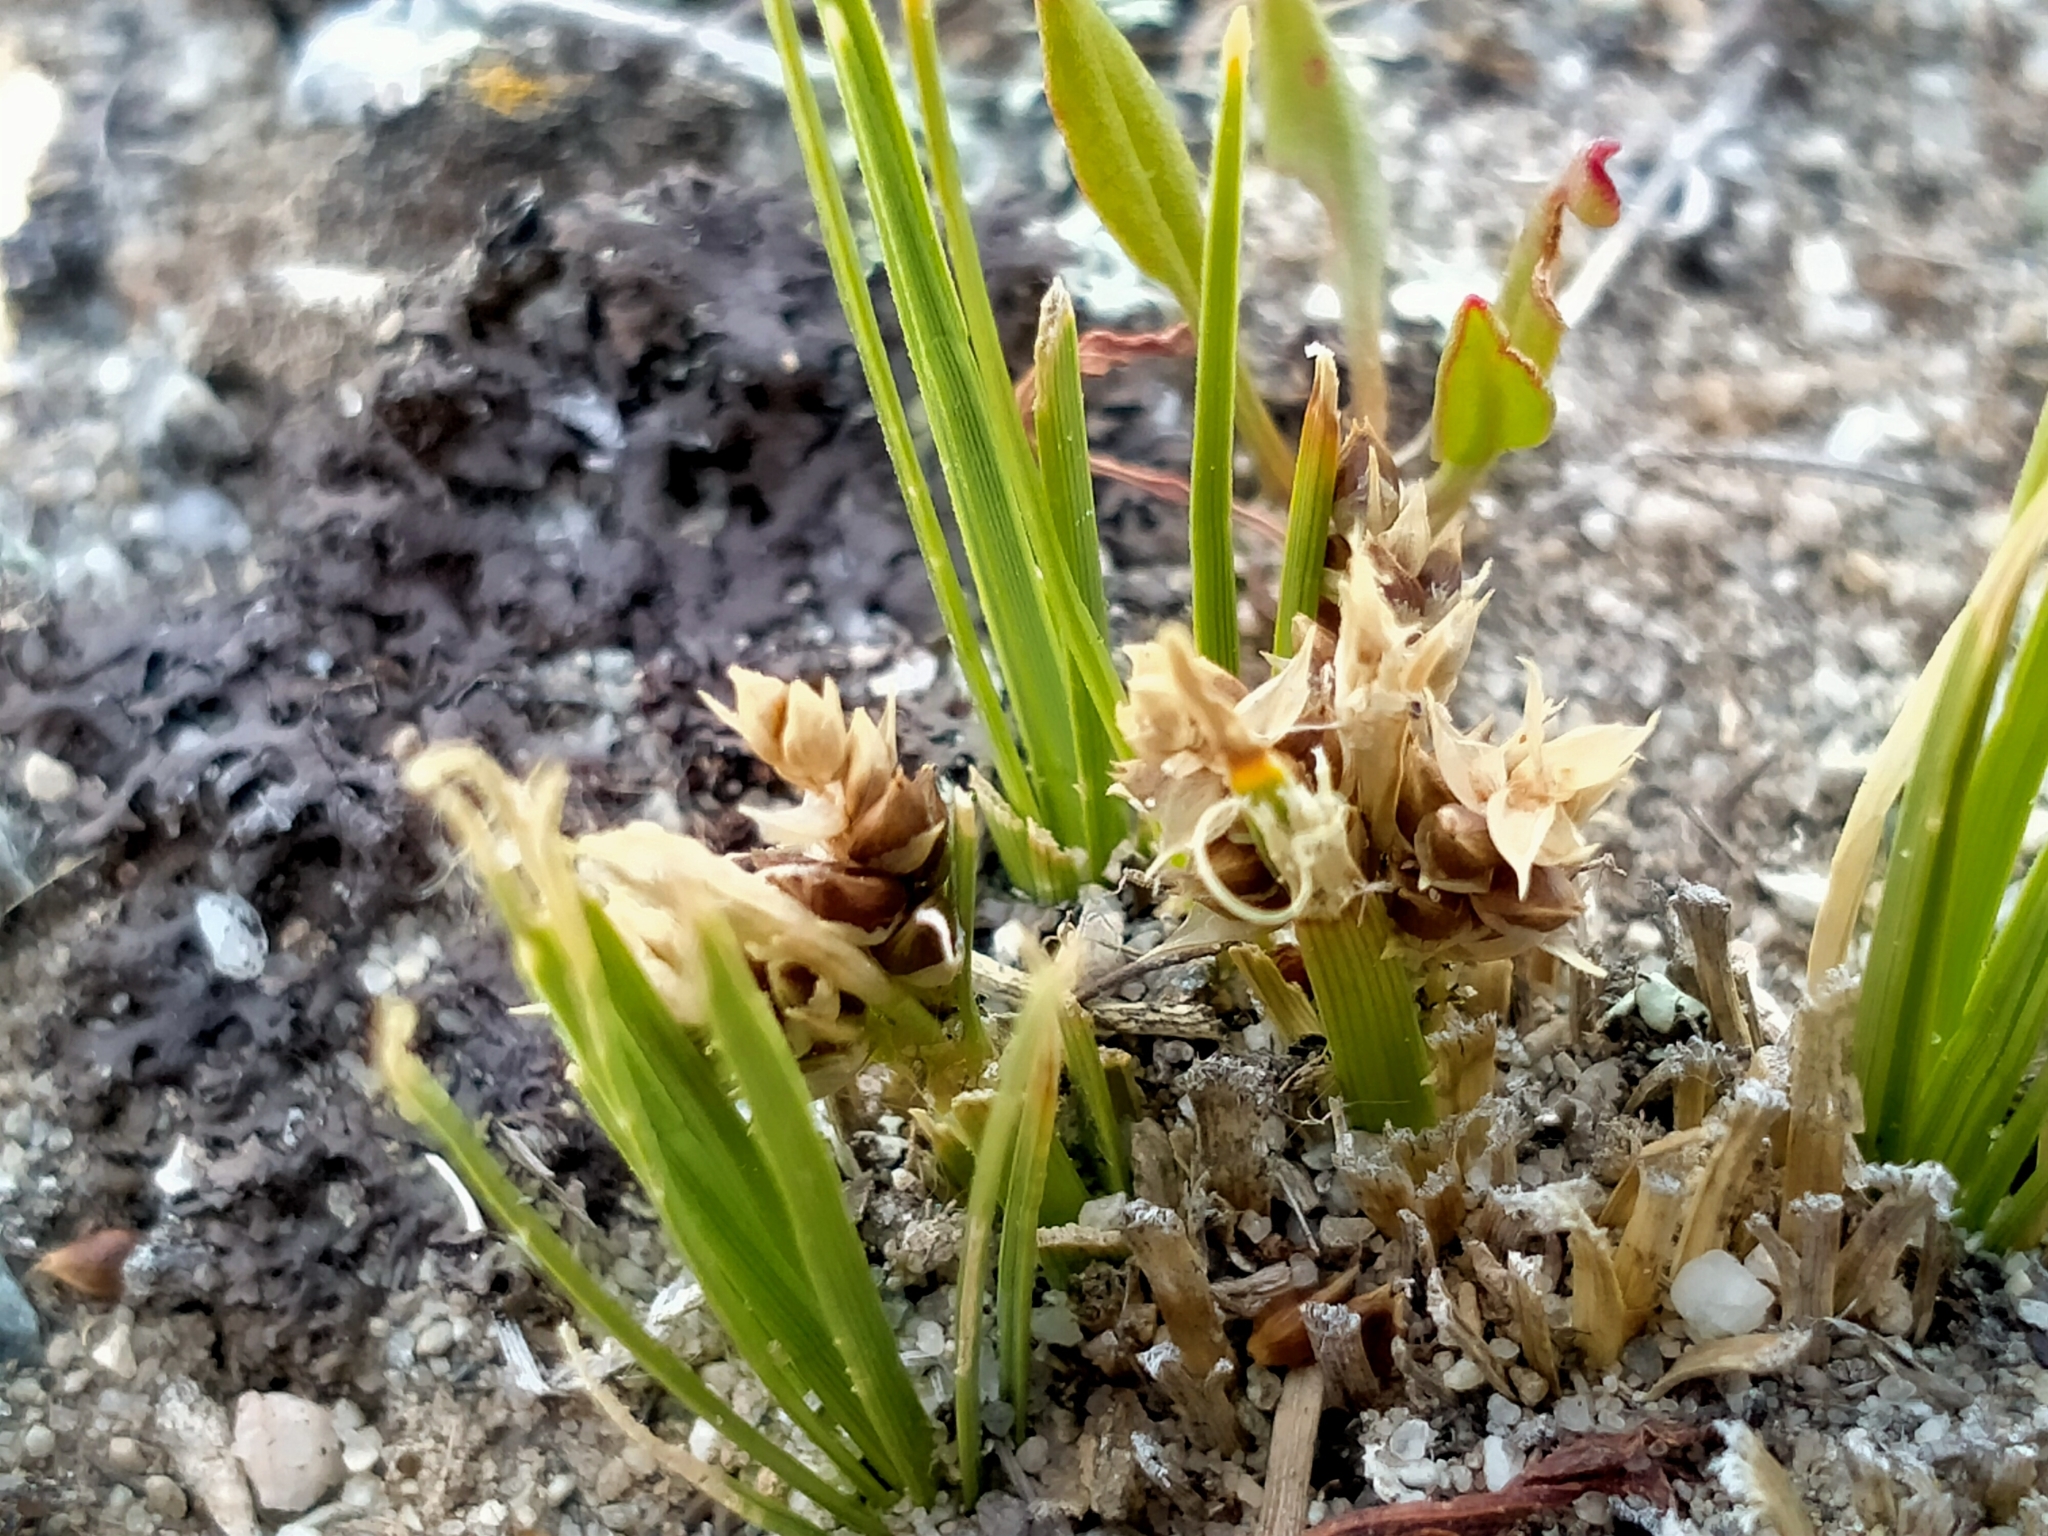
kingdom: Plantae
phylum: Tracheophyta
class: Liliopsida
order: Poales
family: Cyperaceae
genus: Carex
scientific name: Carex decurtata
